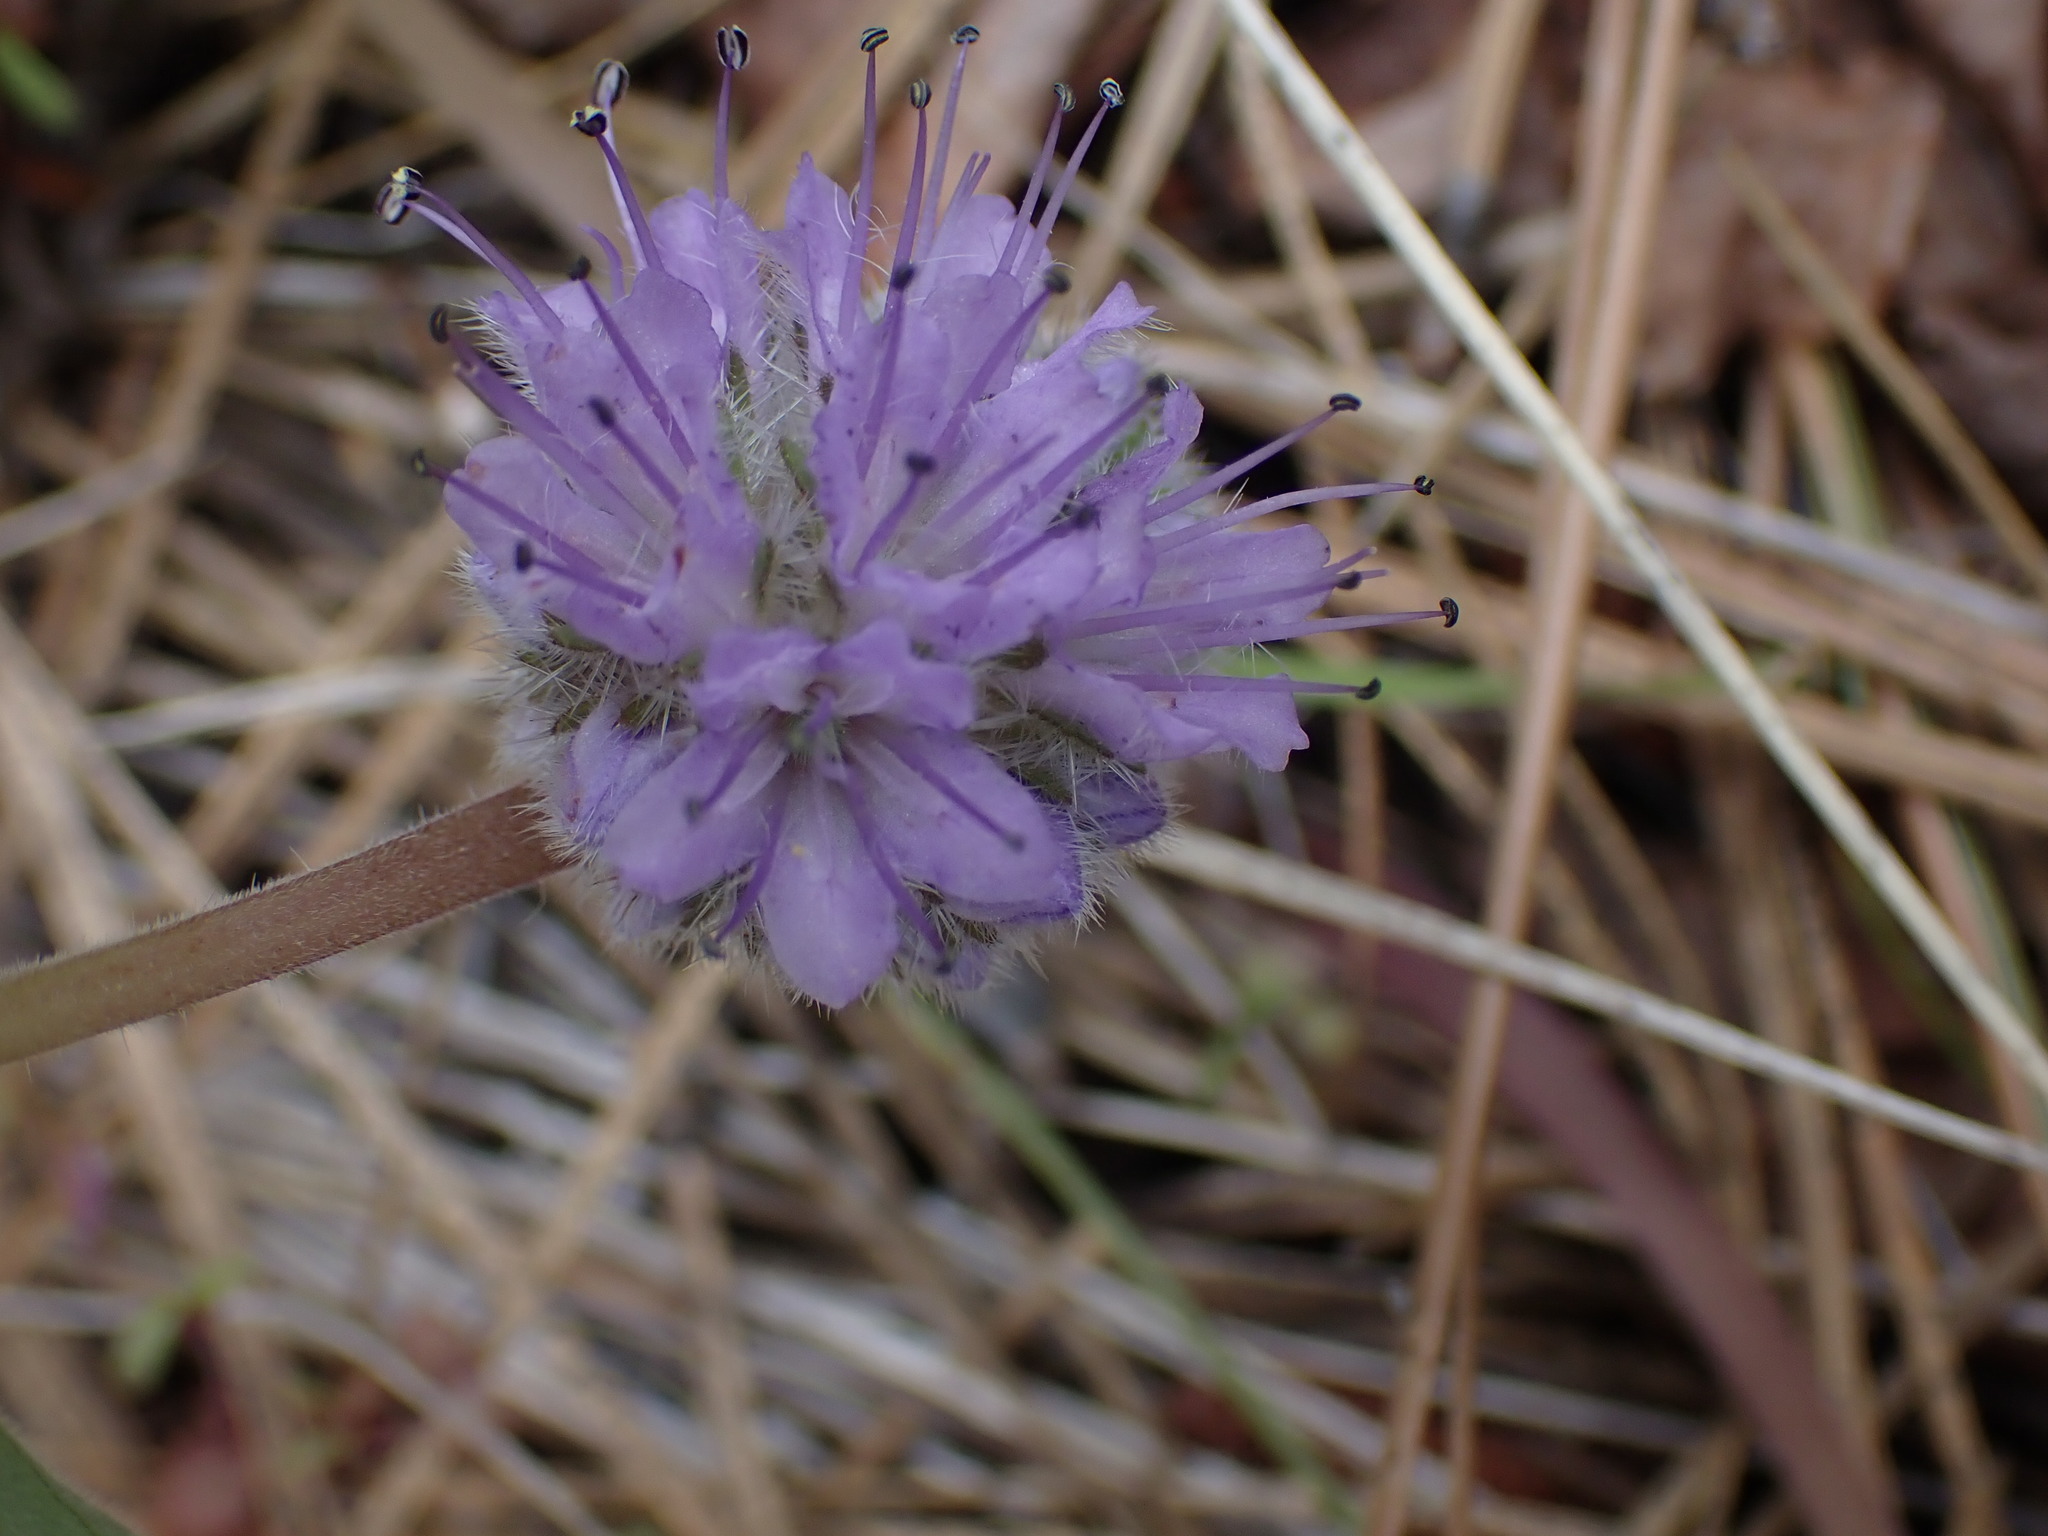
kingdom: Plantae
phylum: Tracheophyta
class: Magnoliopsida
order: Boraginales
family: Hydrophyllaceae
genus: Hydrophyllum
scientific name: Hydrophyllum capitatum
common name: Woollen-breeches
